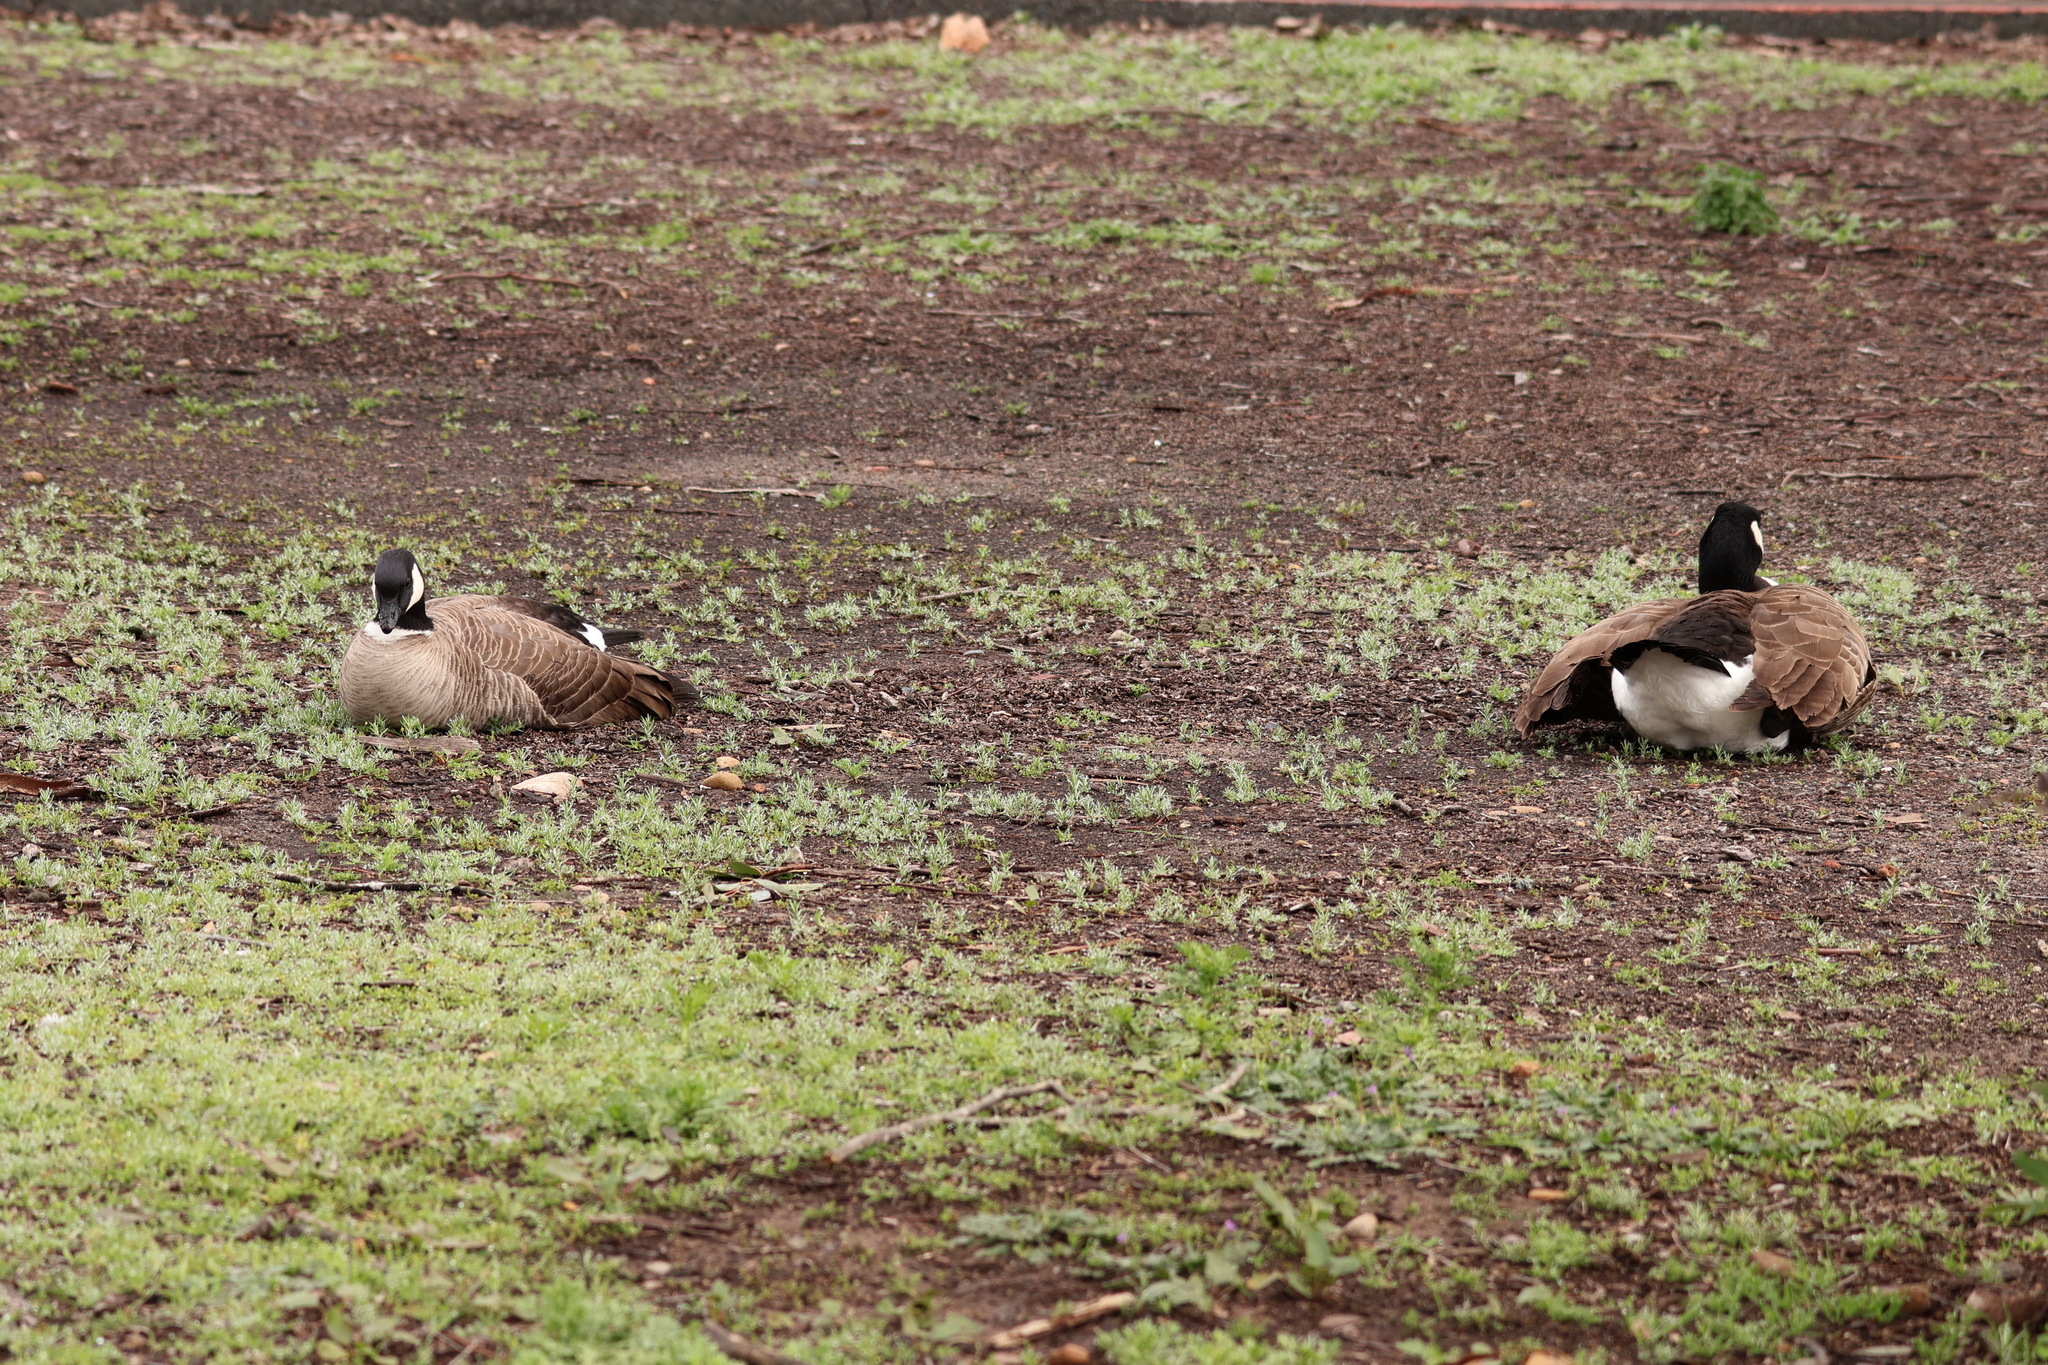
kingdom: Animalia
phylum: Chordata
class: Aves
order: Anseriformes
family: Anatidae
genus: Branta
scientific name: Branta hutchinsii
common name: Cackling goose
